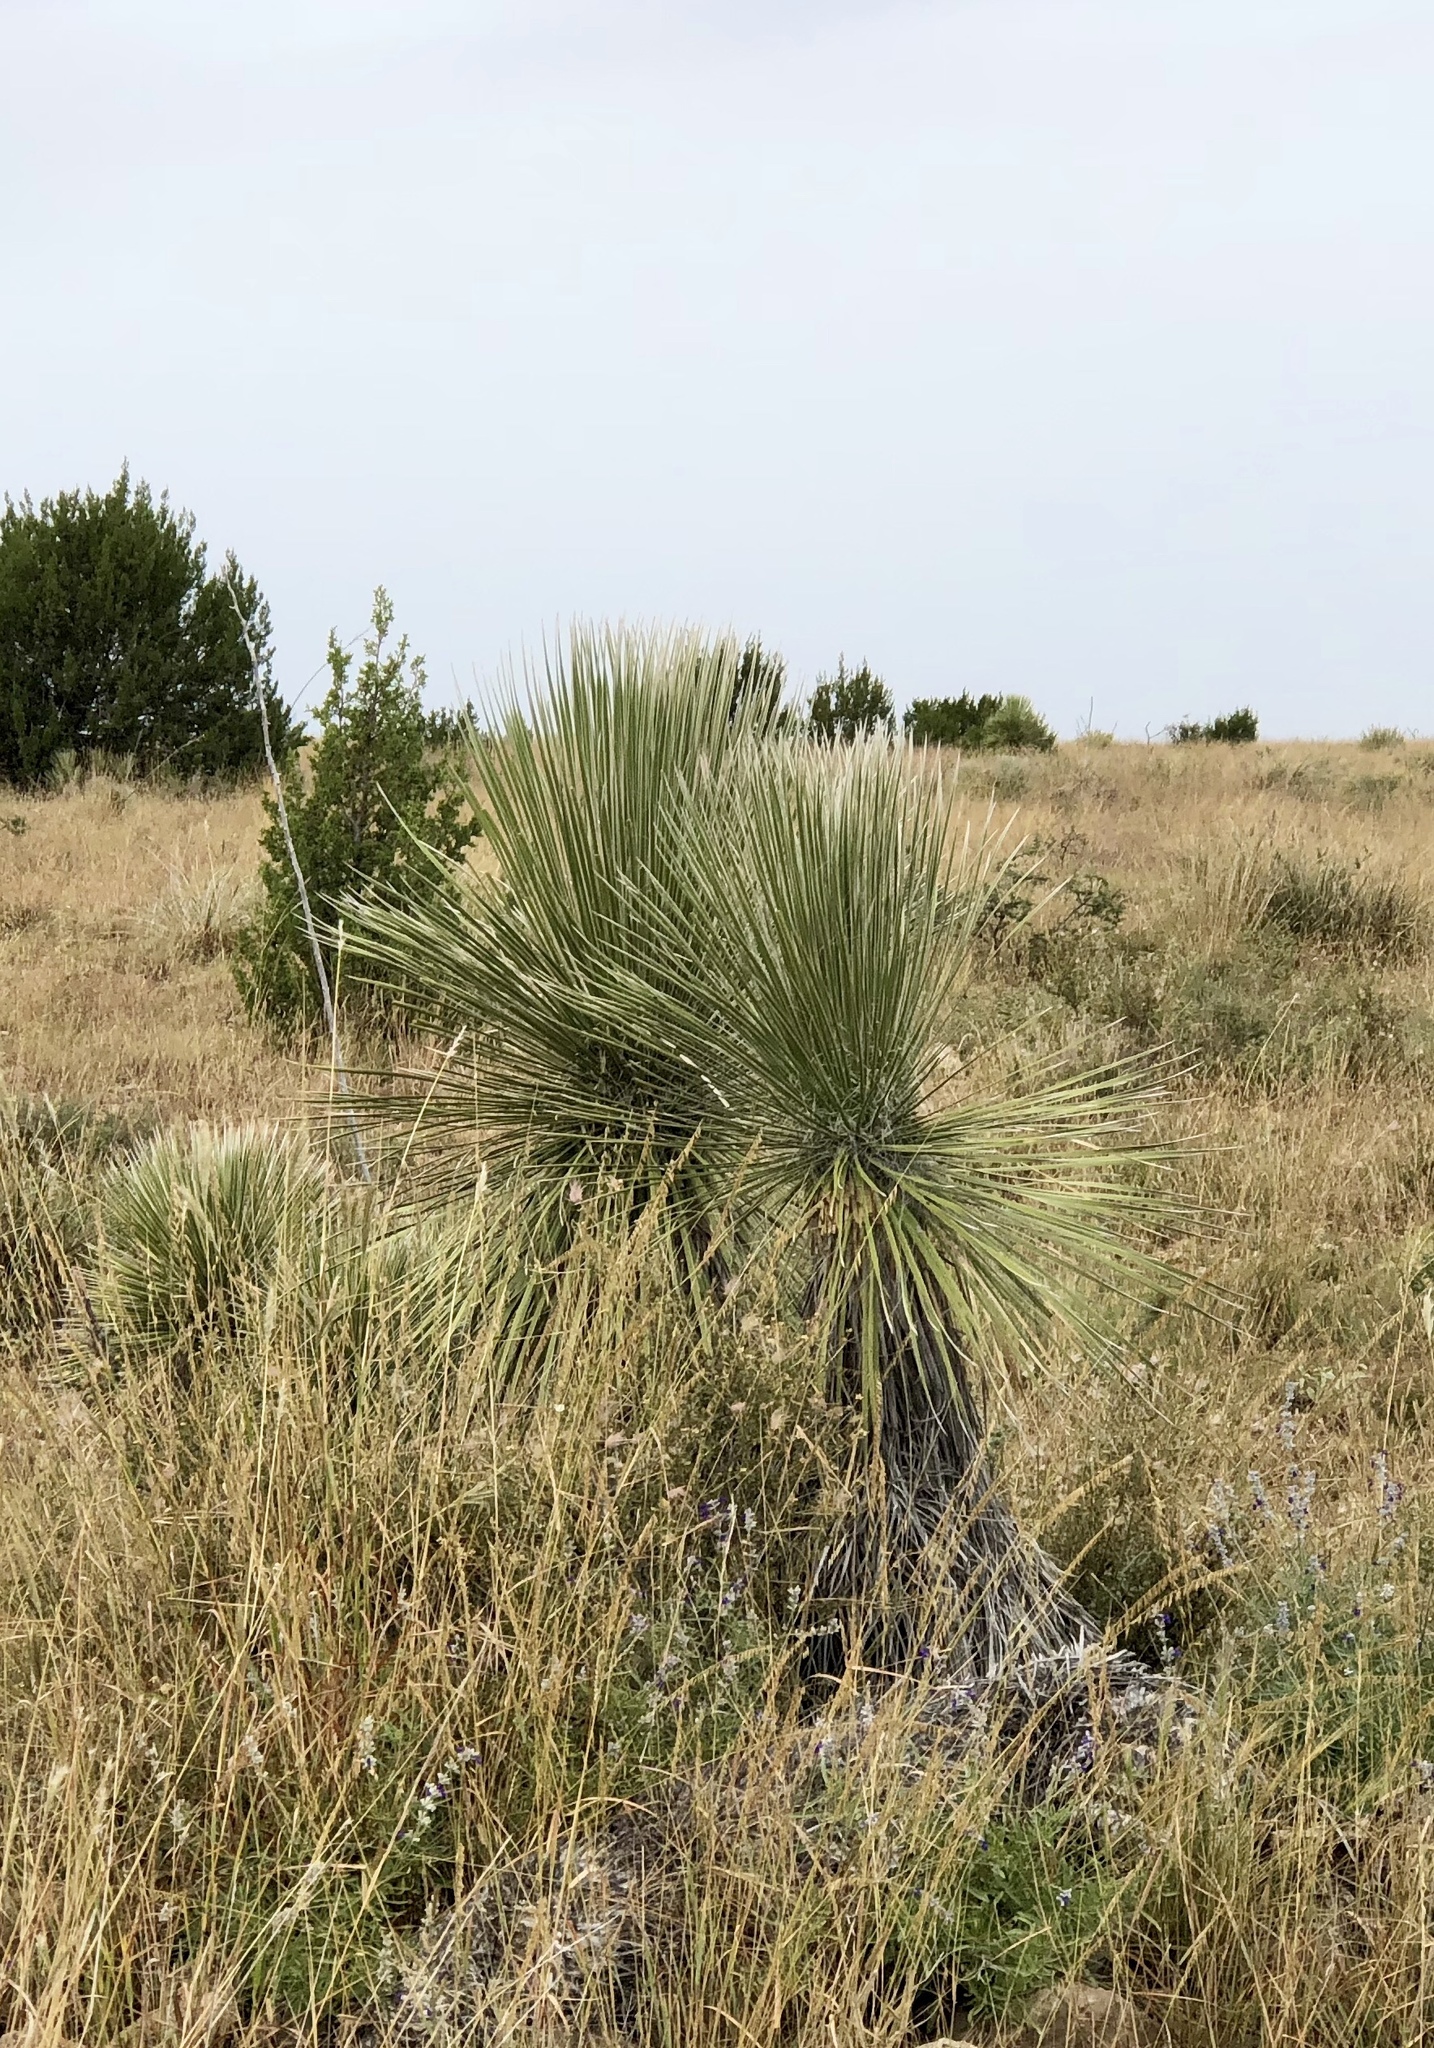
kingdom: Plantae
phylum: Tracheophyta
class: Liliopsida
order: Asparagales
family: Asparagaceae
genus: Yucca
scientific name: Yucca elata
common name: Palmella
